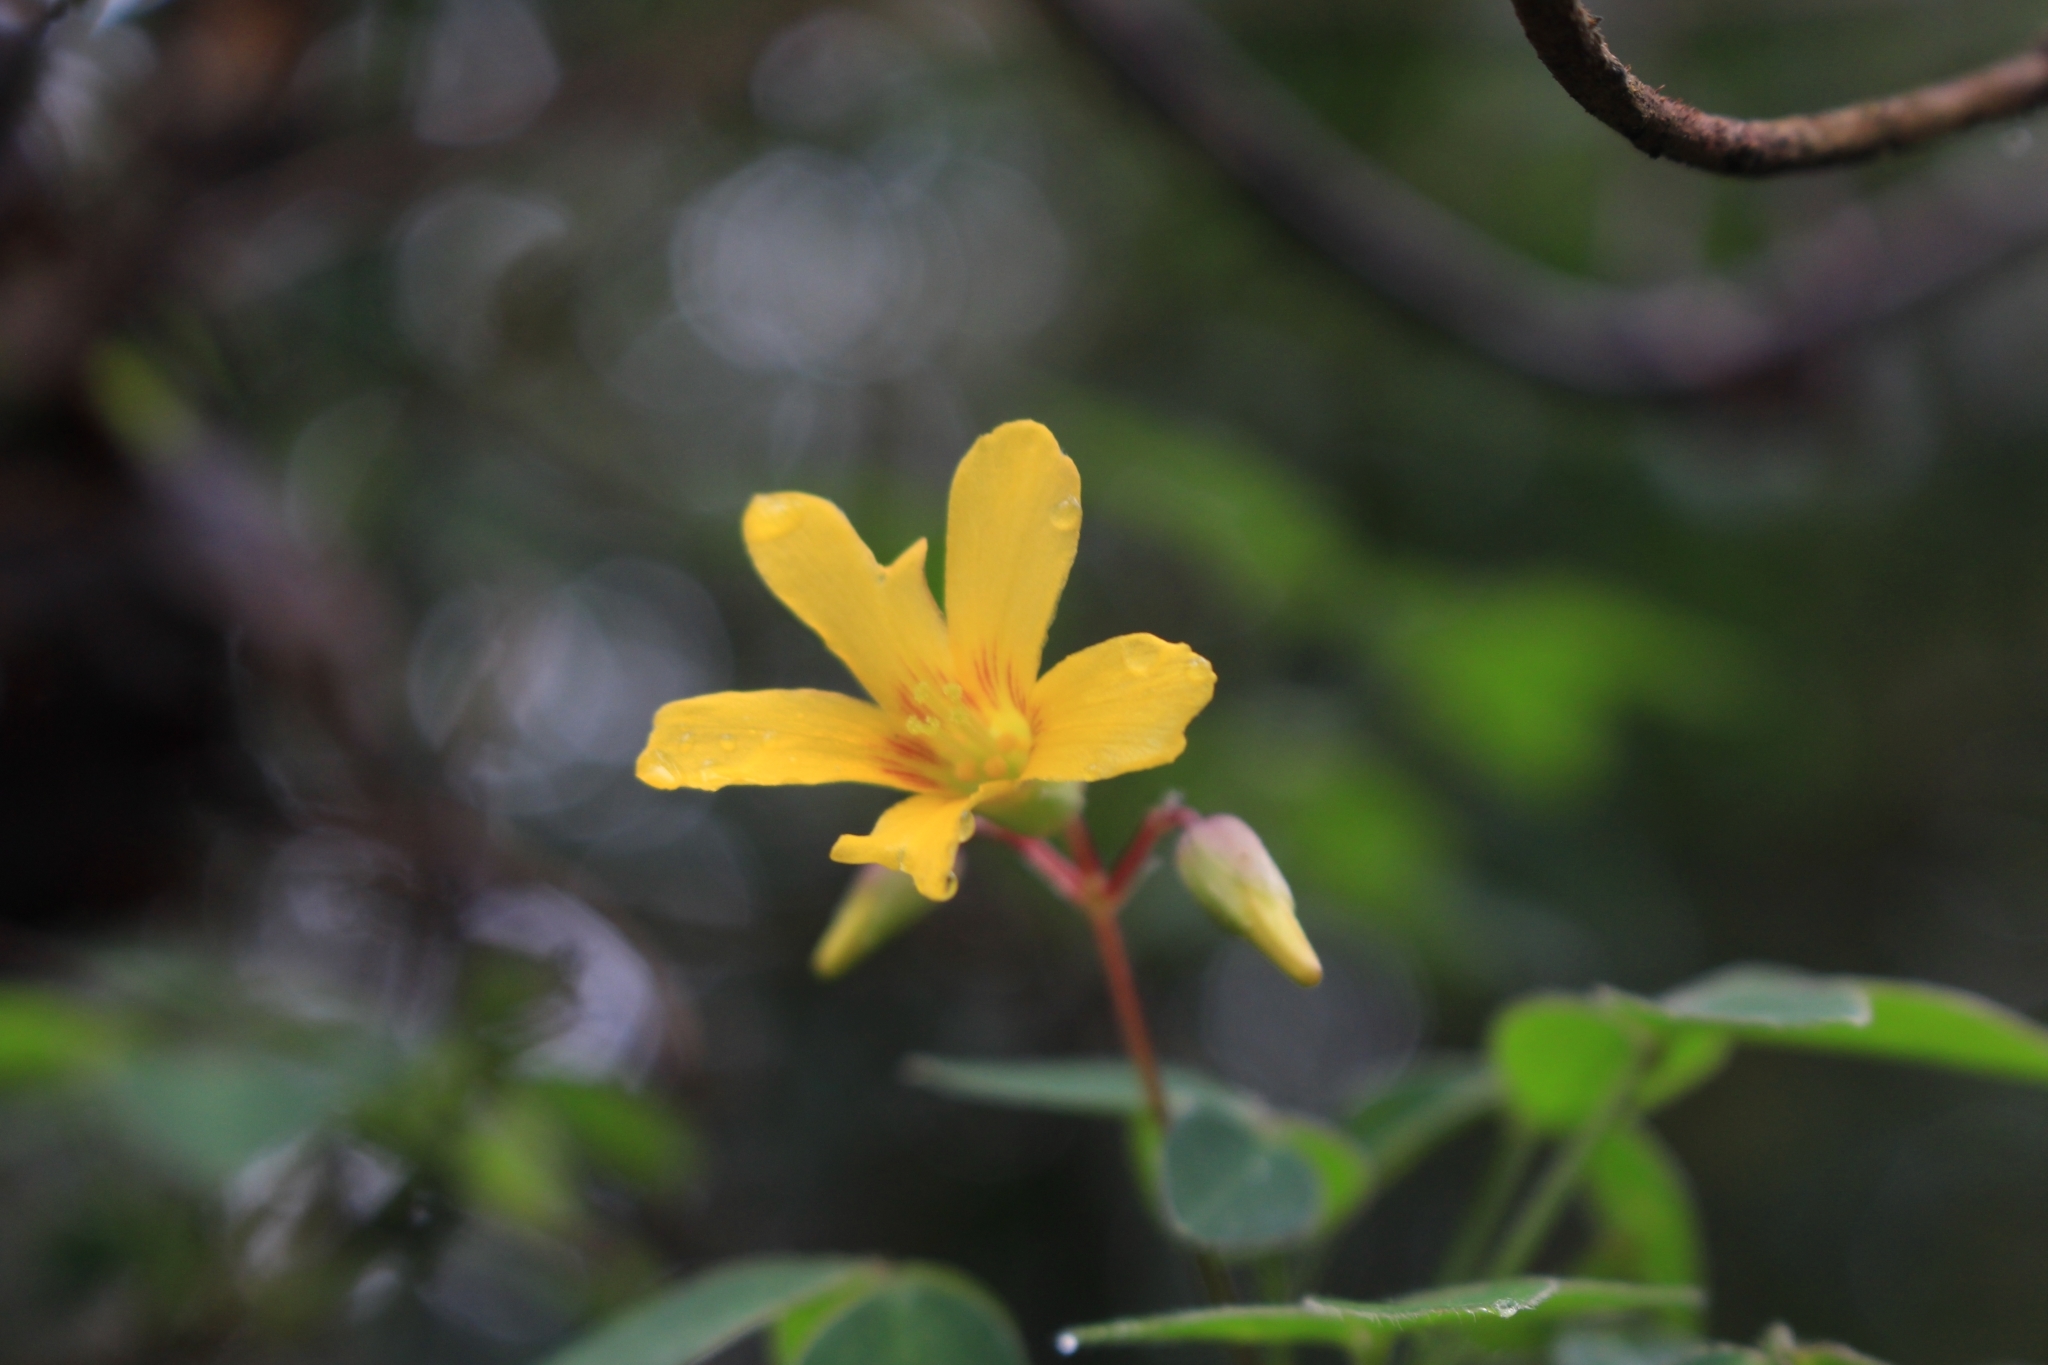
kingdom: Plantae
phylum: Tracheophyta
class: Magnoliopsida
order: Oxalidales
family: Oxalidaceae
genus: Oxalis
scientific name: Oxalis rhombifolia
